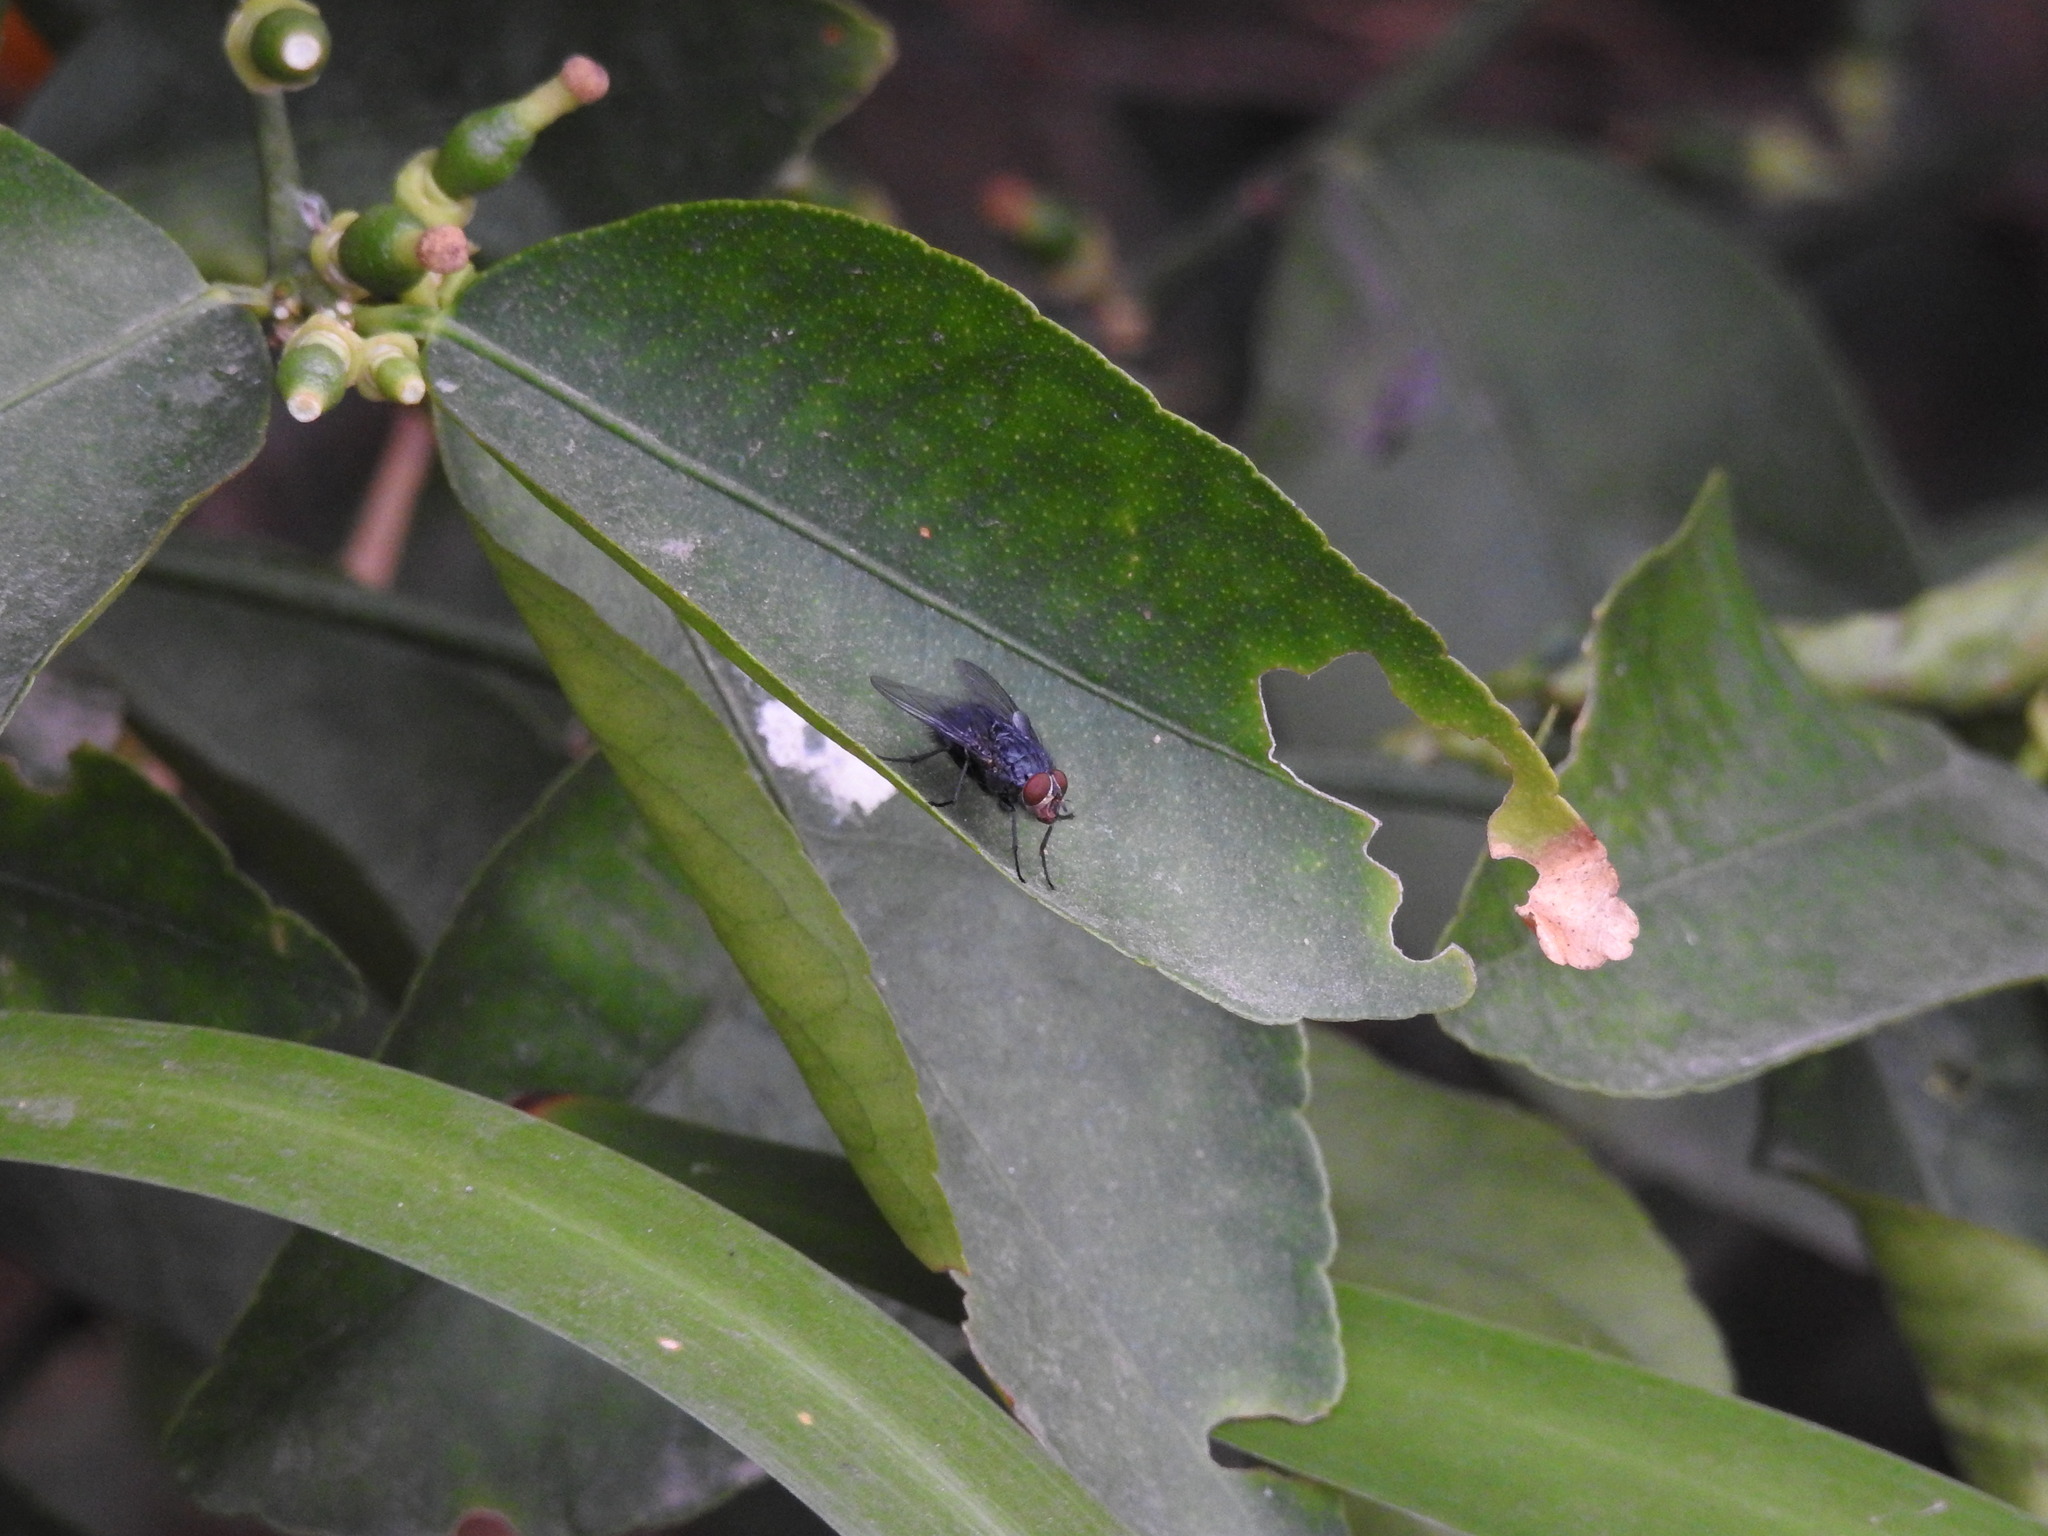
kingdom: Animalia
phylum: Arthropoda
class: Insecta
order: Diptera
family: Calliphoridae
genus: Calliphora
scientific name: Calliphora vicina
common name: Common blow flie
